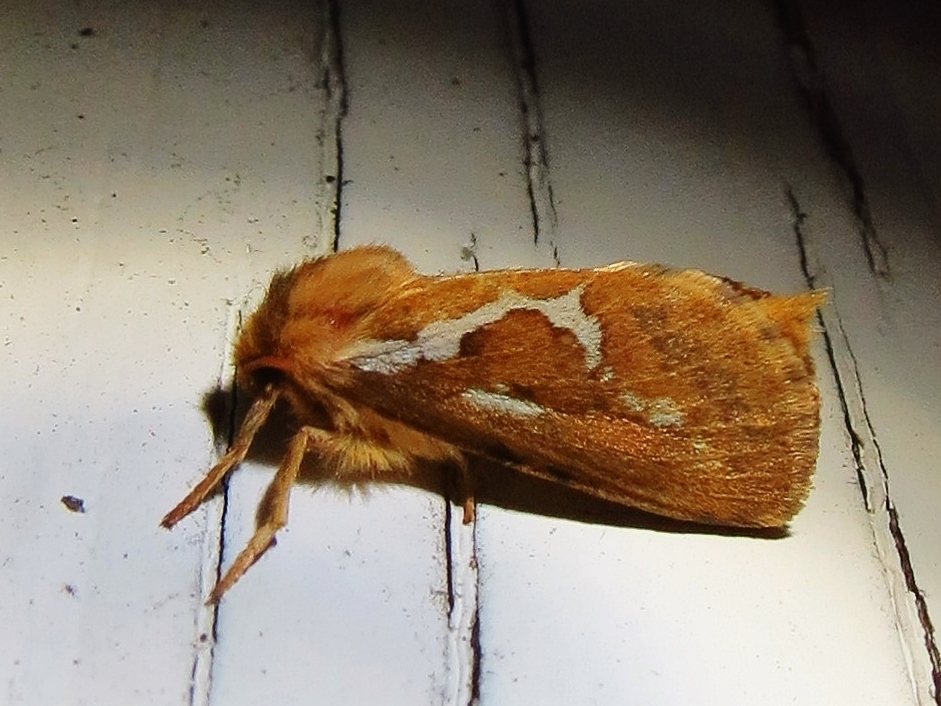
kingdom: Animalia
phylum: Arthropoda
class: Insecta
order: Lepidoptera
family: Hepialidae
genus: Korscheltellus
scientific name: Korscheltellus lupulina
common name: Common swift
